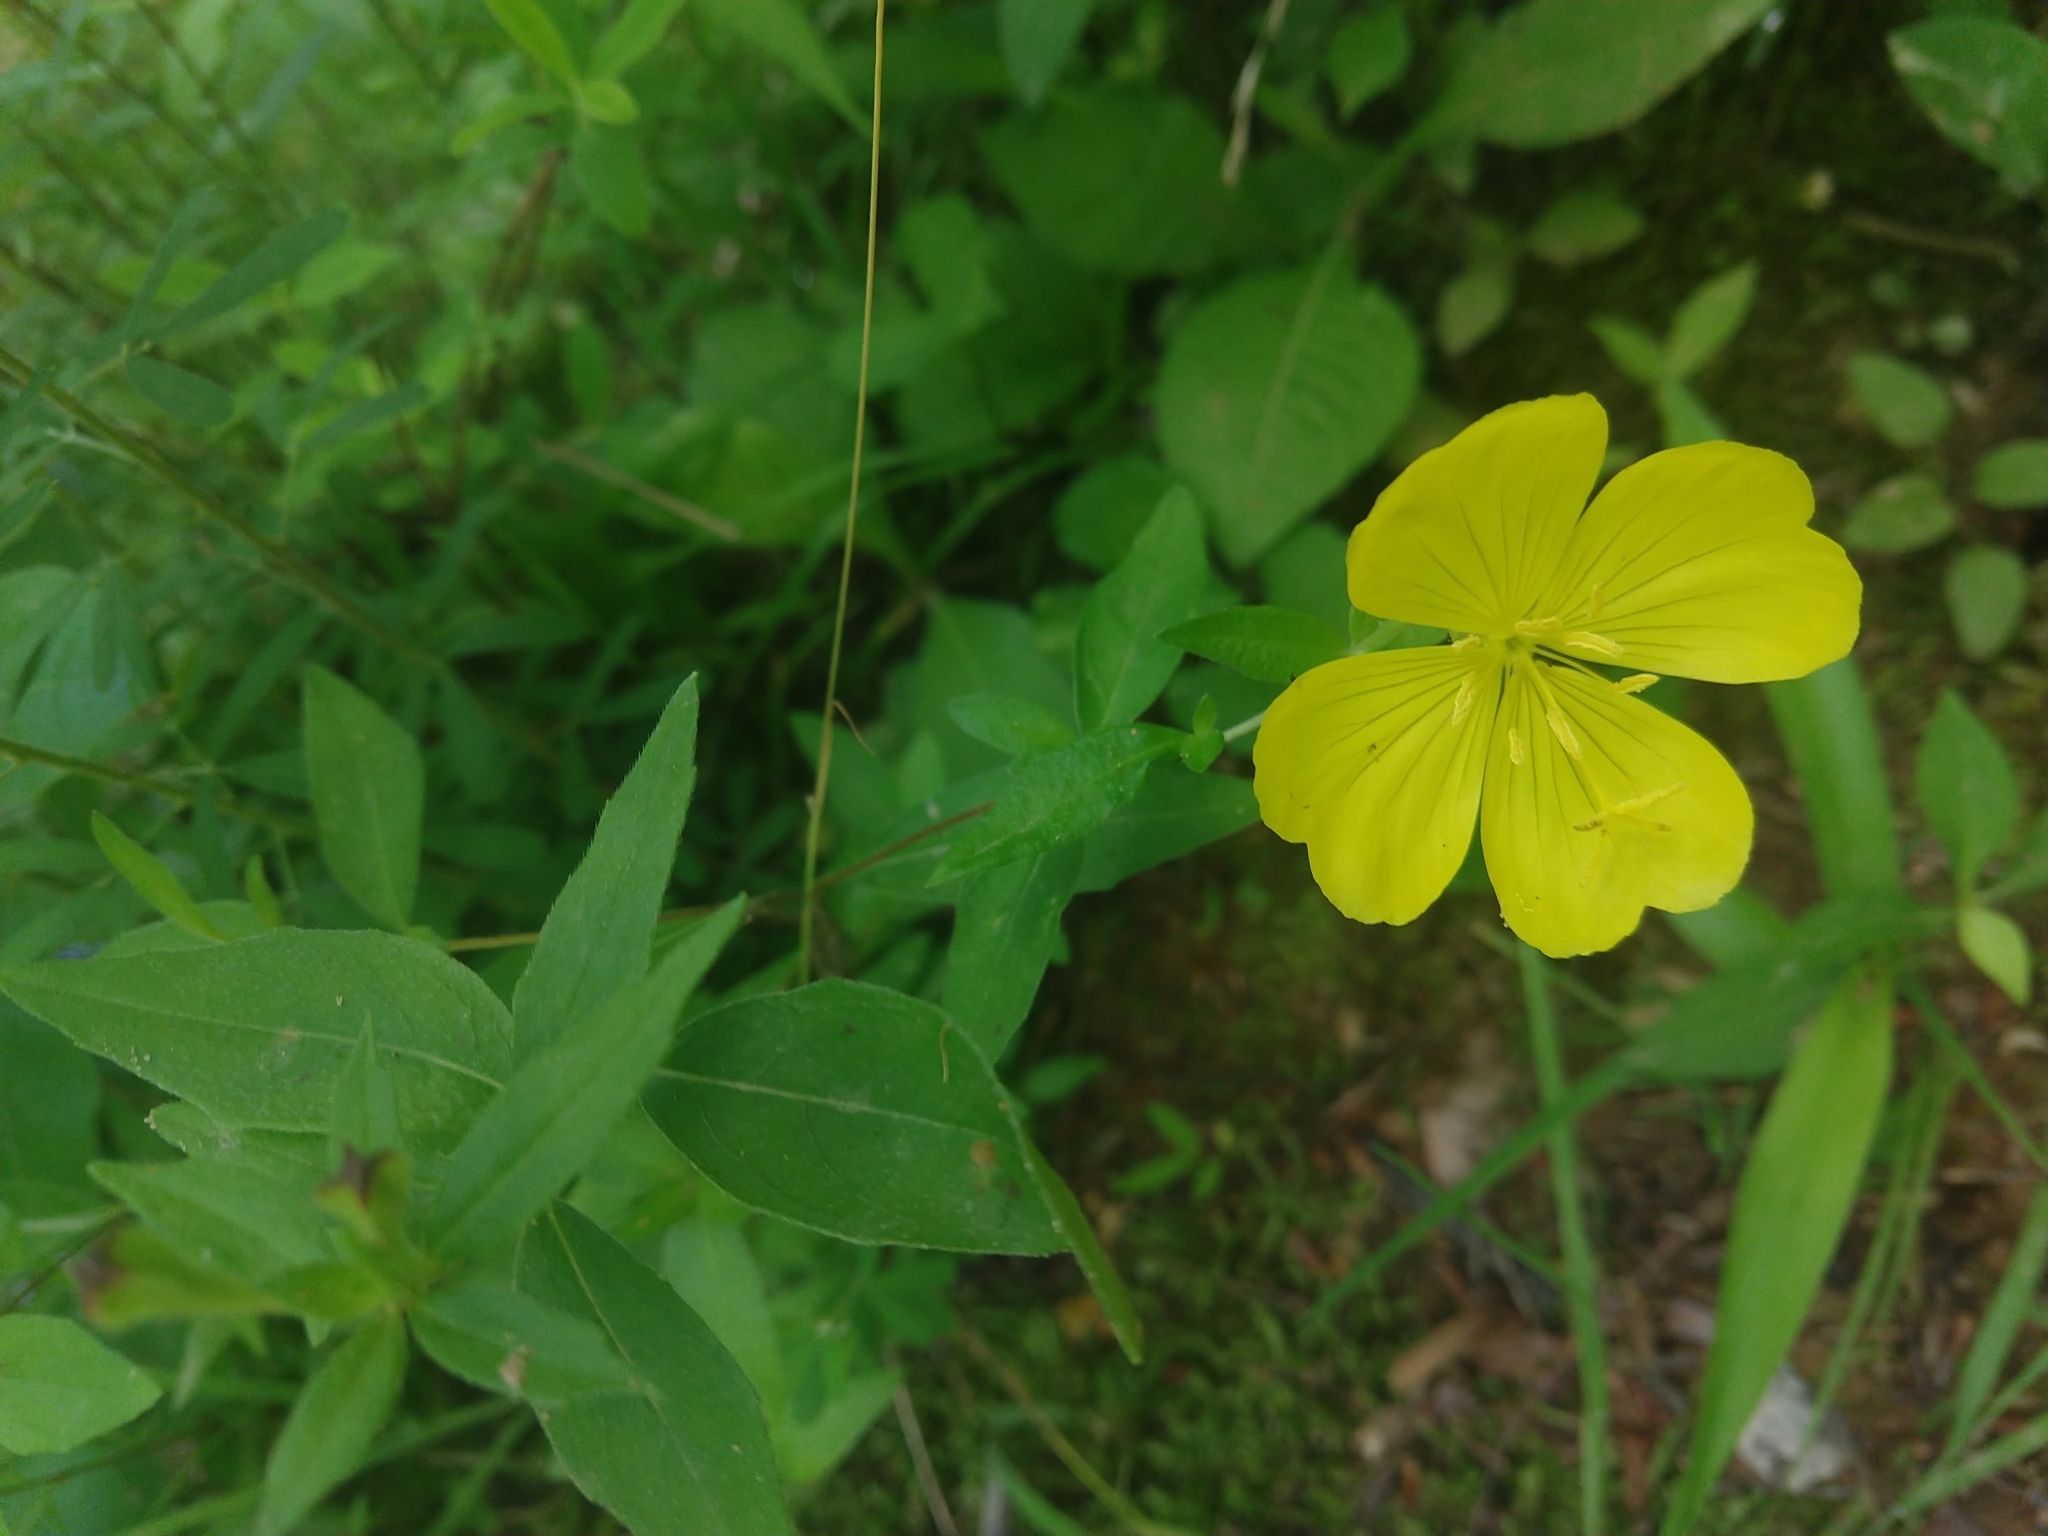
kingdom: Plantae
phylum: Tracheophyta
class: Magnoliopsida
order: Myrtales
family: Onagraceae
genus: Oenothera
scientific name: Oenothera fruticosa
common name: Southern sundrops
